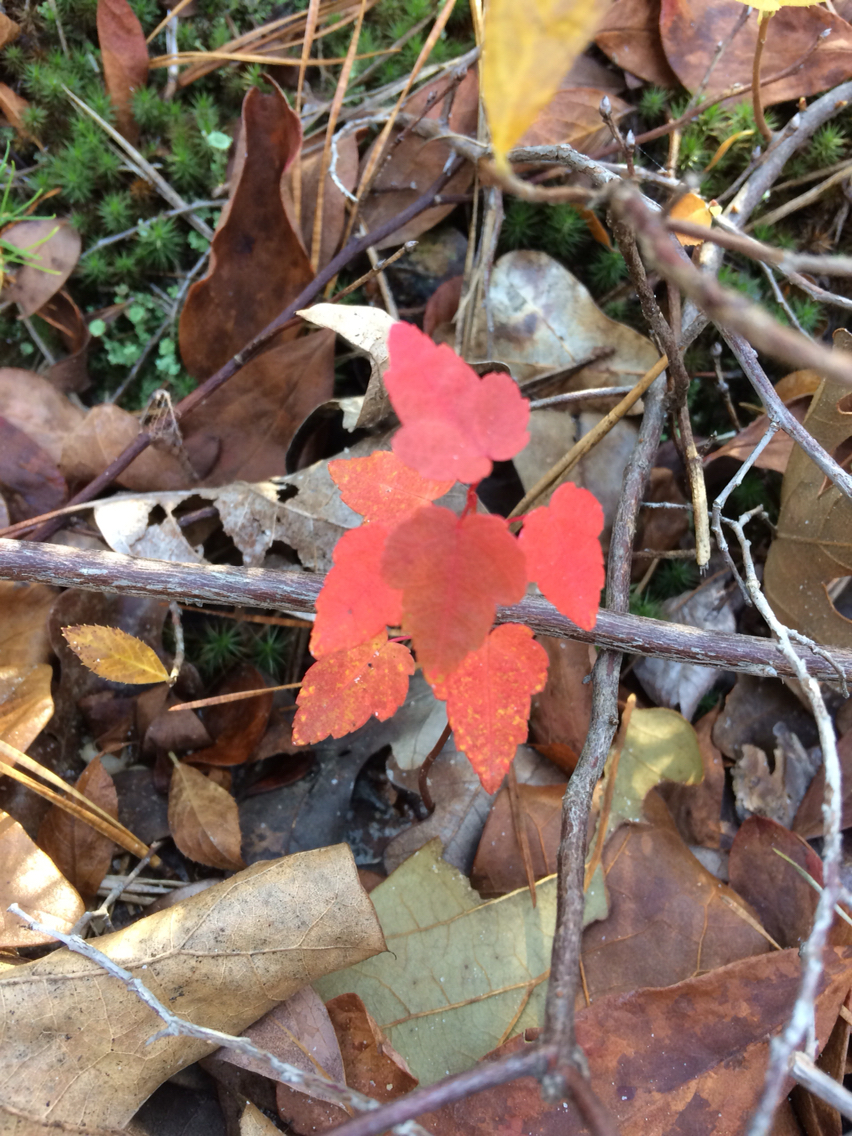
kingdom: Plantae
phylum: Tracheophyta
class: Magnoliopsida
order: Sapindales
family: Sapindaceae
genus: Acer
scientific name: Acer rubrum
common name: Red maple
